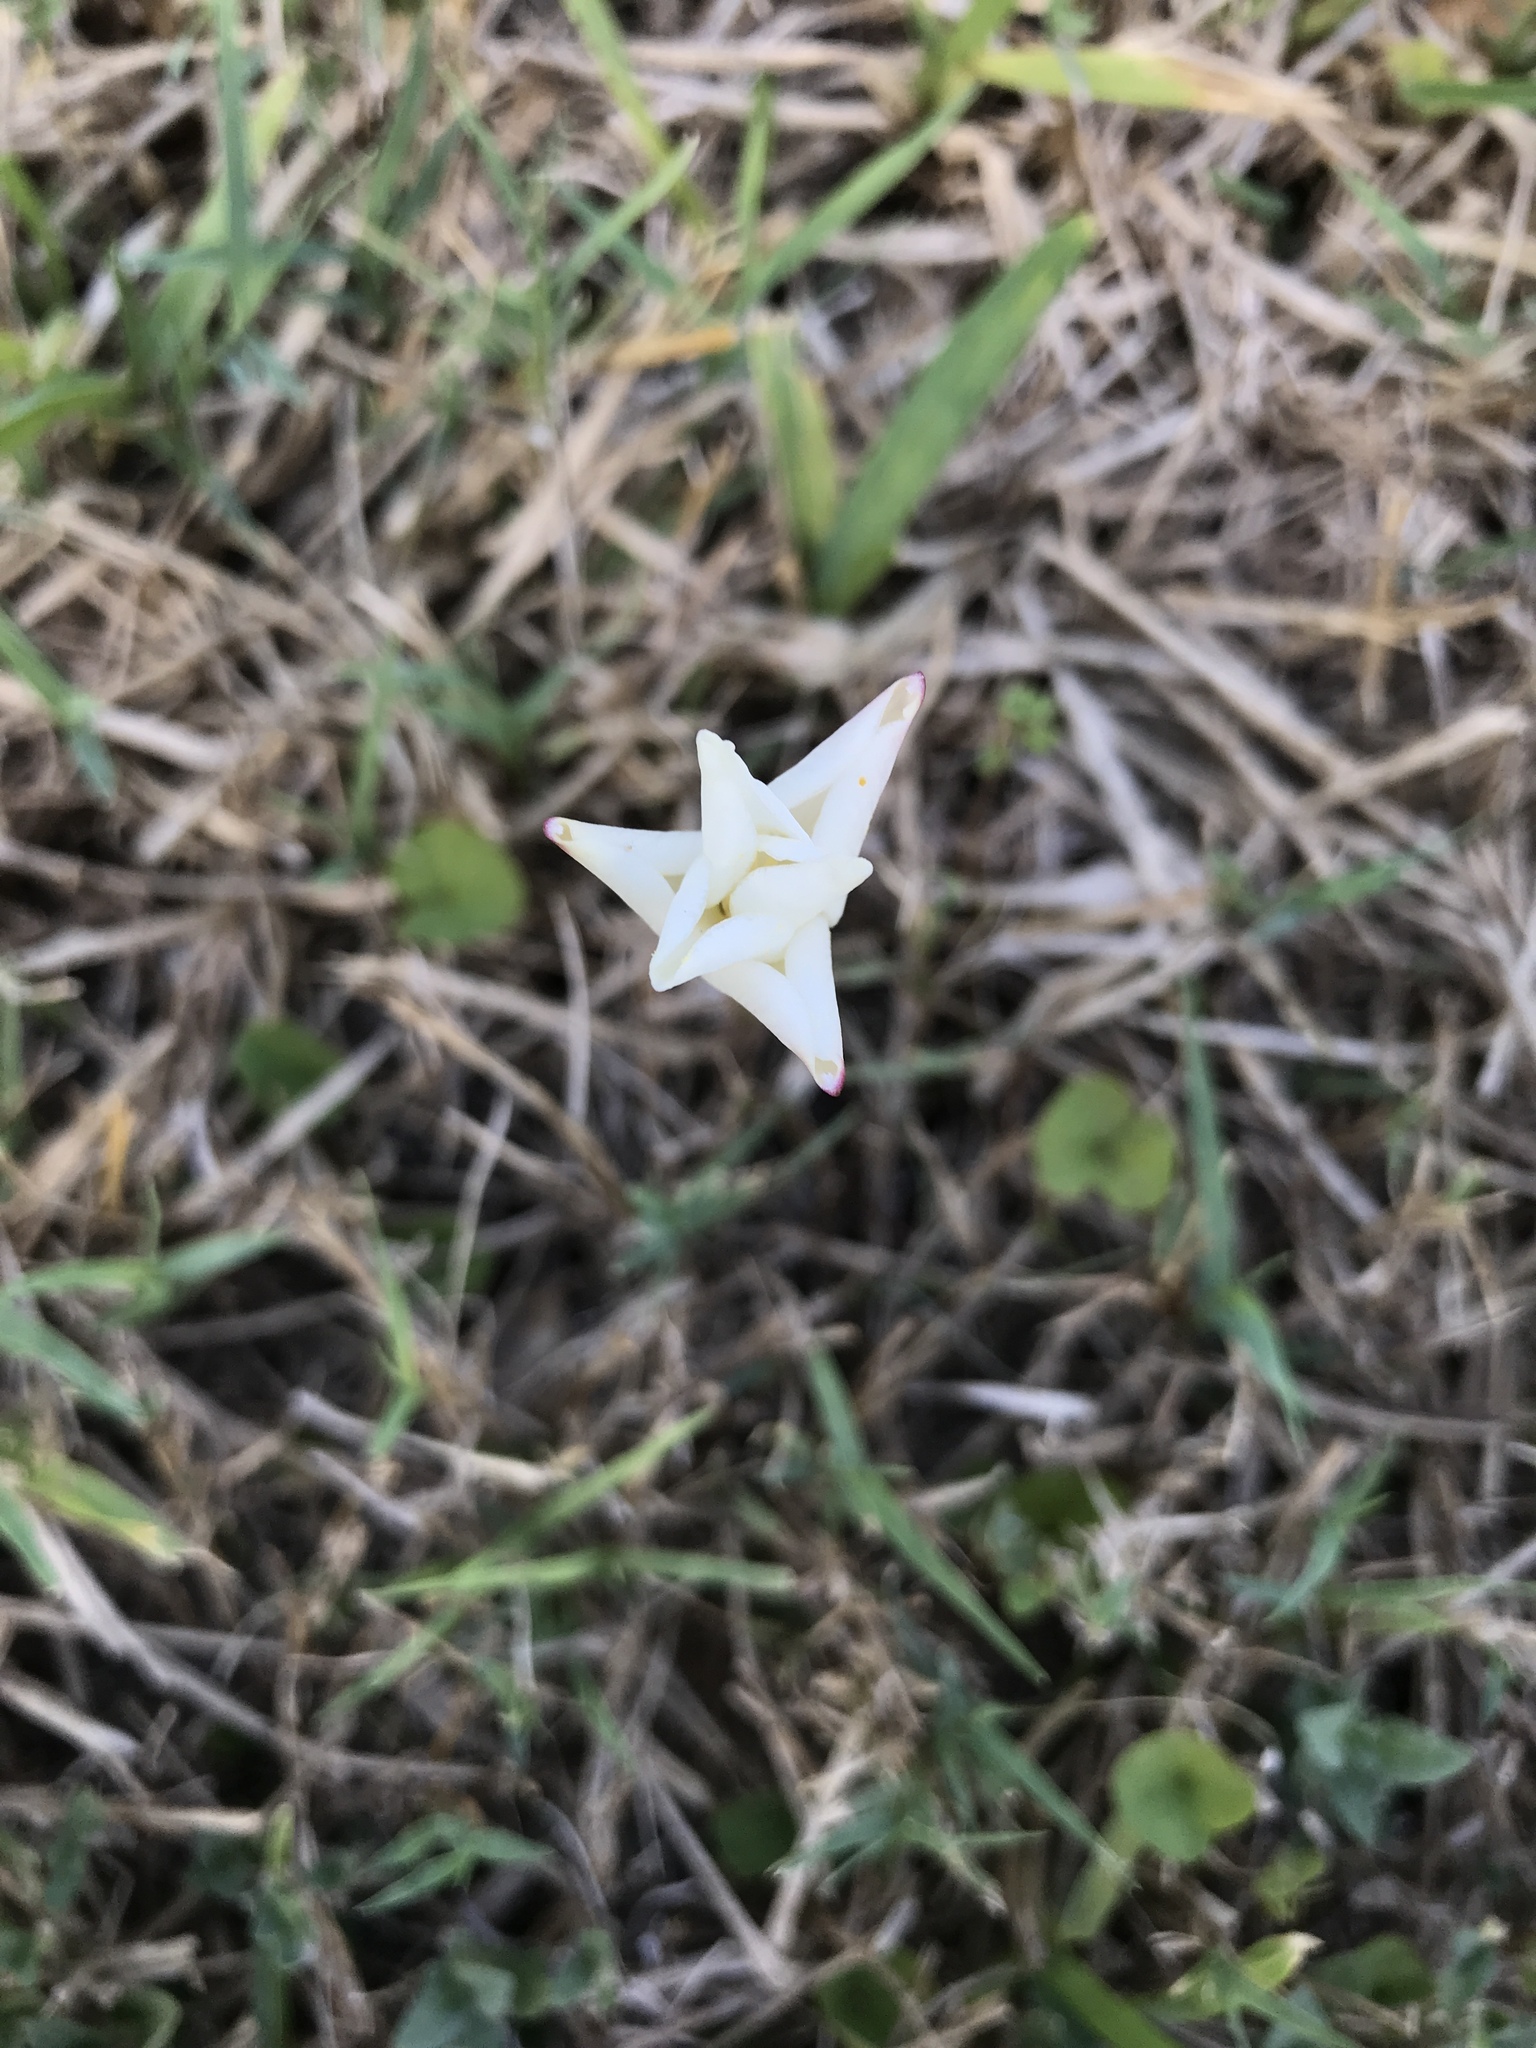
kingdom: Plantae
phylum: Tracheophyta
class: Liliopsida
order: Asparagales
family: Amaryllidaceae
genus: Zephyranthes
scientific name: Zephyranthes chlorosolen
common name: Evening rain-lily
